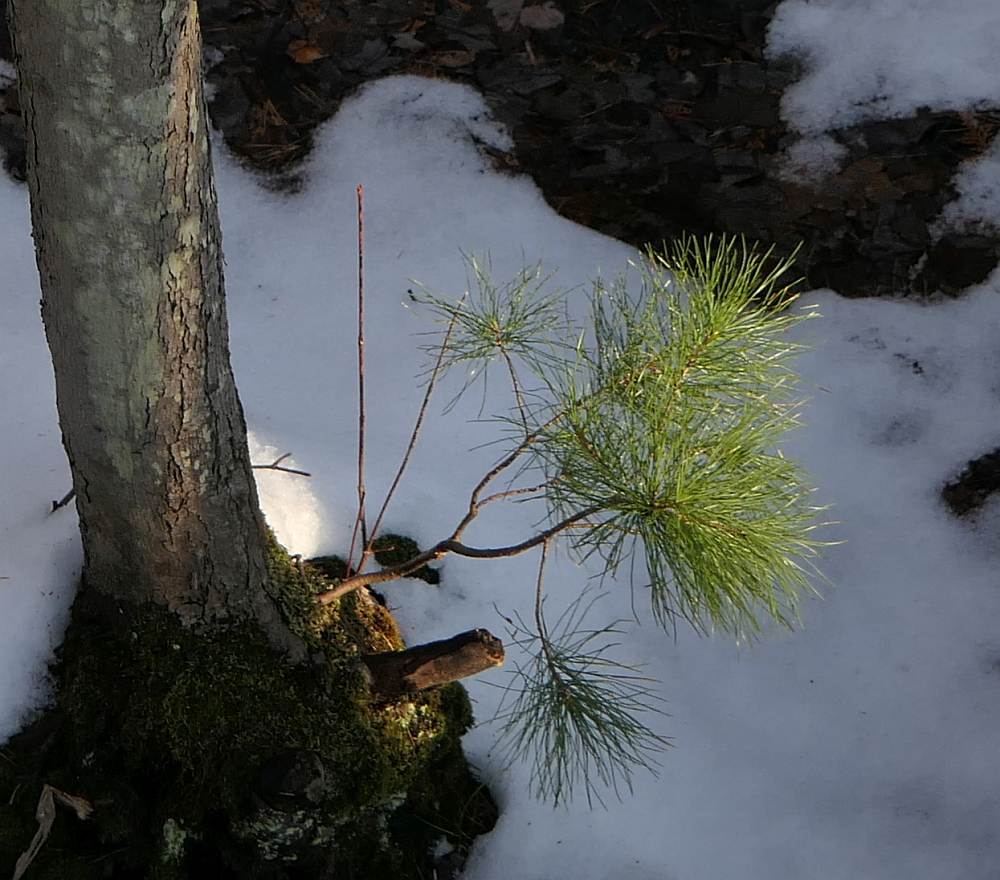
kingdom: Plantae
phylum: Tracheophyta
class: Pinopsida
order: Pinales
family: Pinaceae
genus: Pinus
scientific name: Pinus strobus
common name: Weymouth pine
